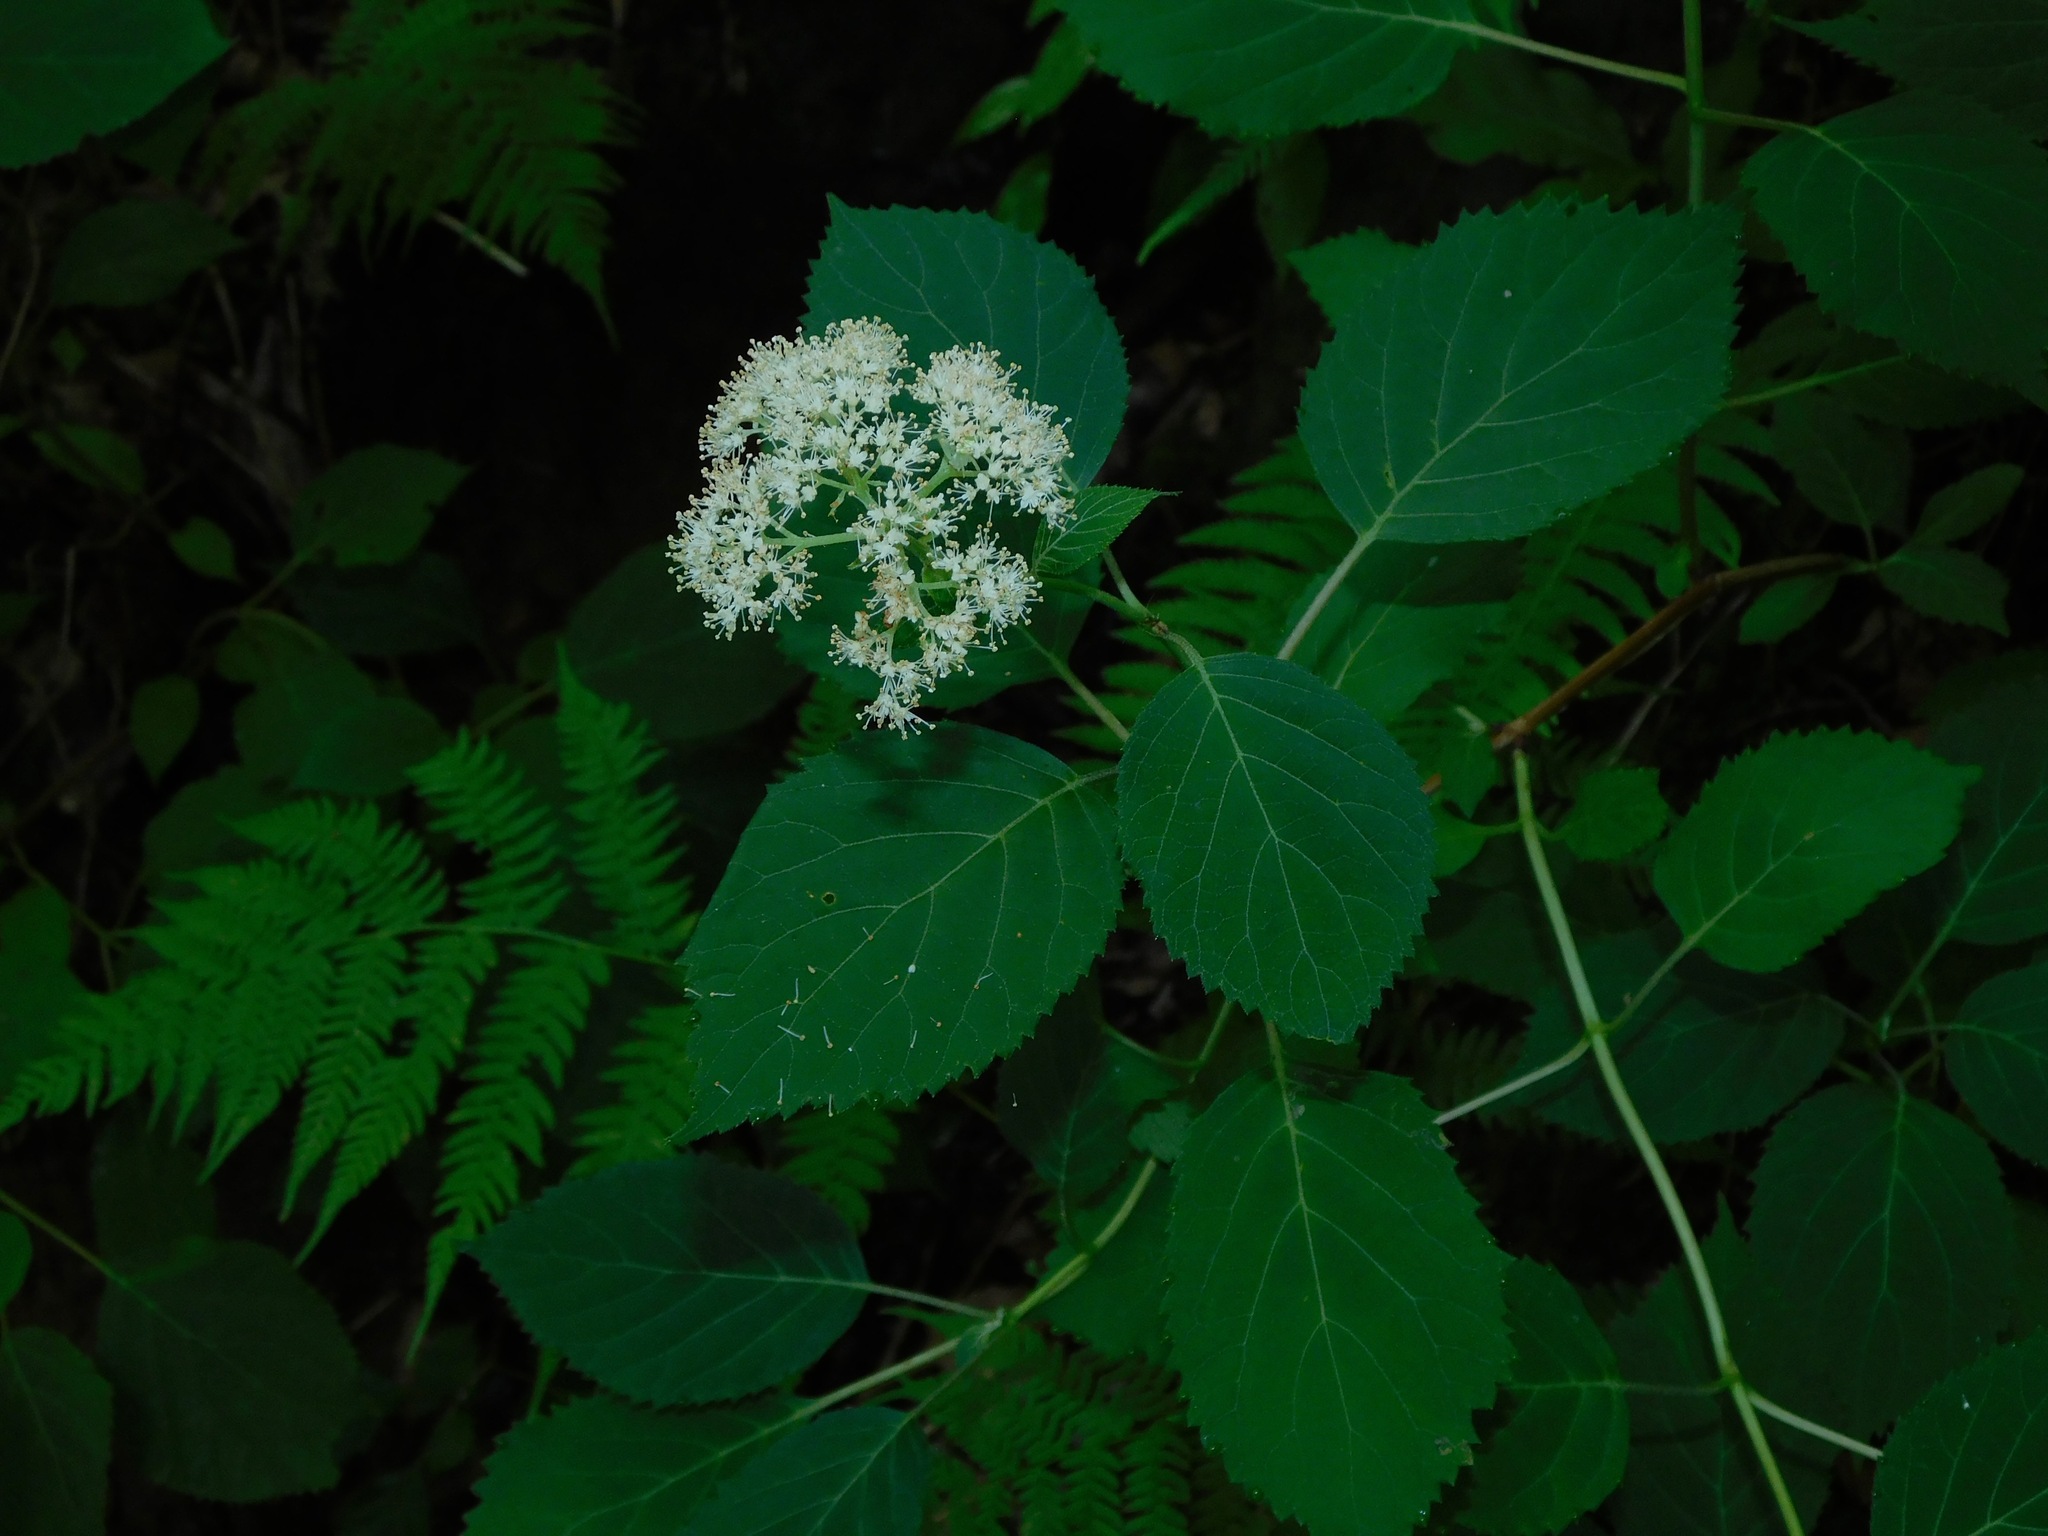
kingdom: Plantae
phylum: Tracheophyta
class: Magnoliopsida
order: Cornales
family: Hydrangeaceae
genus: Hydrangea
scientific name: Hydrangea arborescens
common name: Sevenbark
